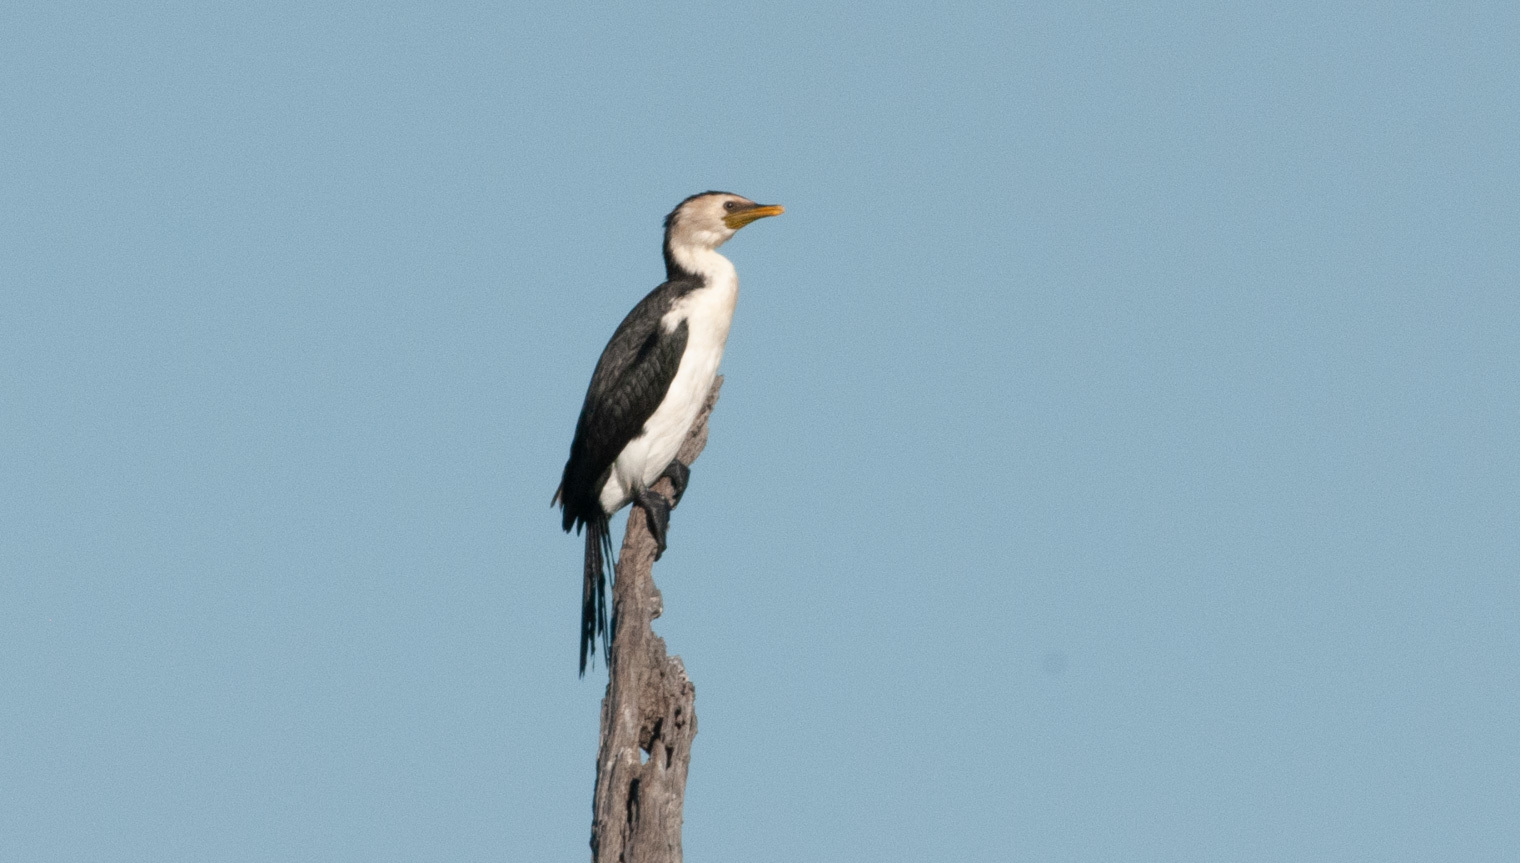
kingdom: Animalia
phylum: Chordata
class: Aves
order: Suliformes
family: Phalacrocoracidae
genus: Microcarbo
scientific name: Microcarbo melanoleucos
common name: Little pied cormorant
